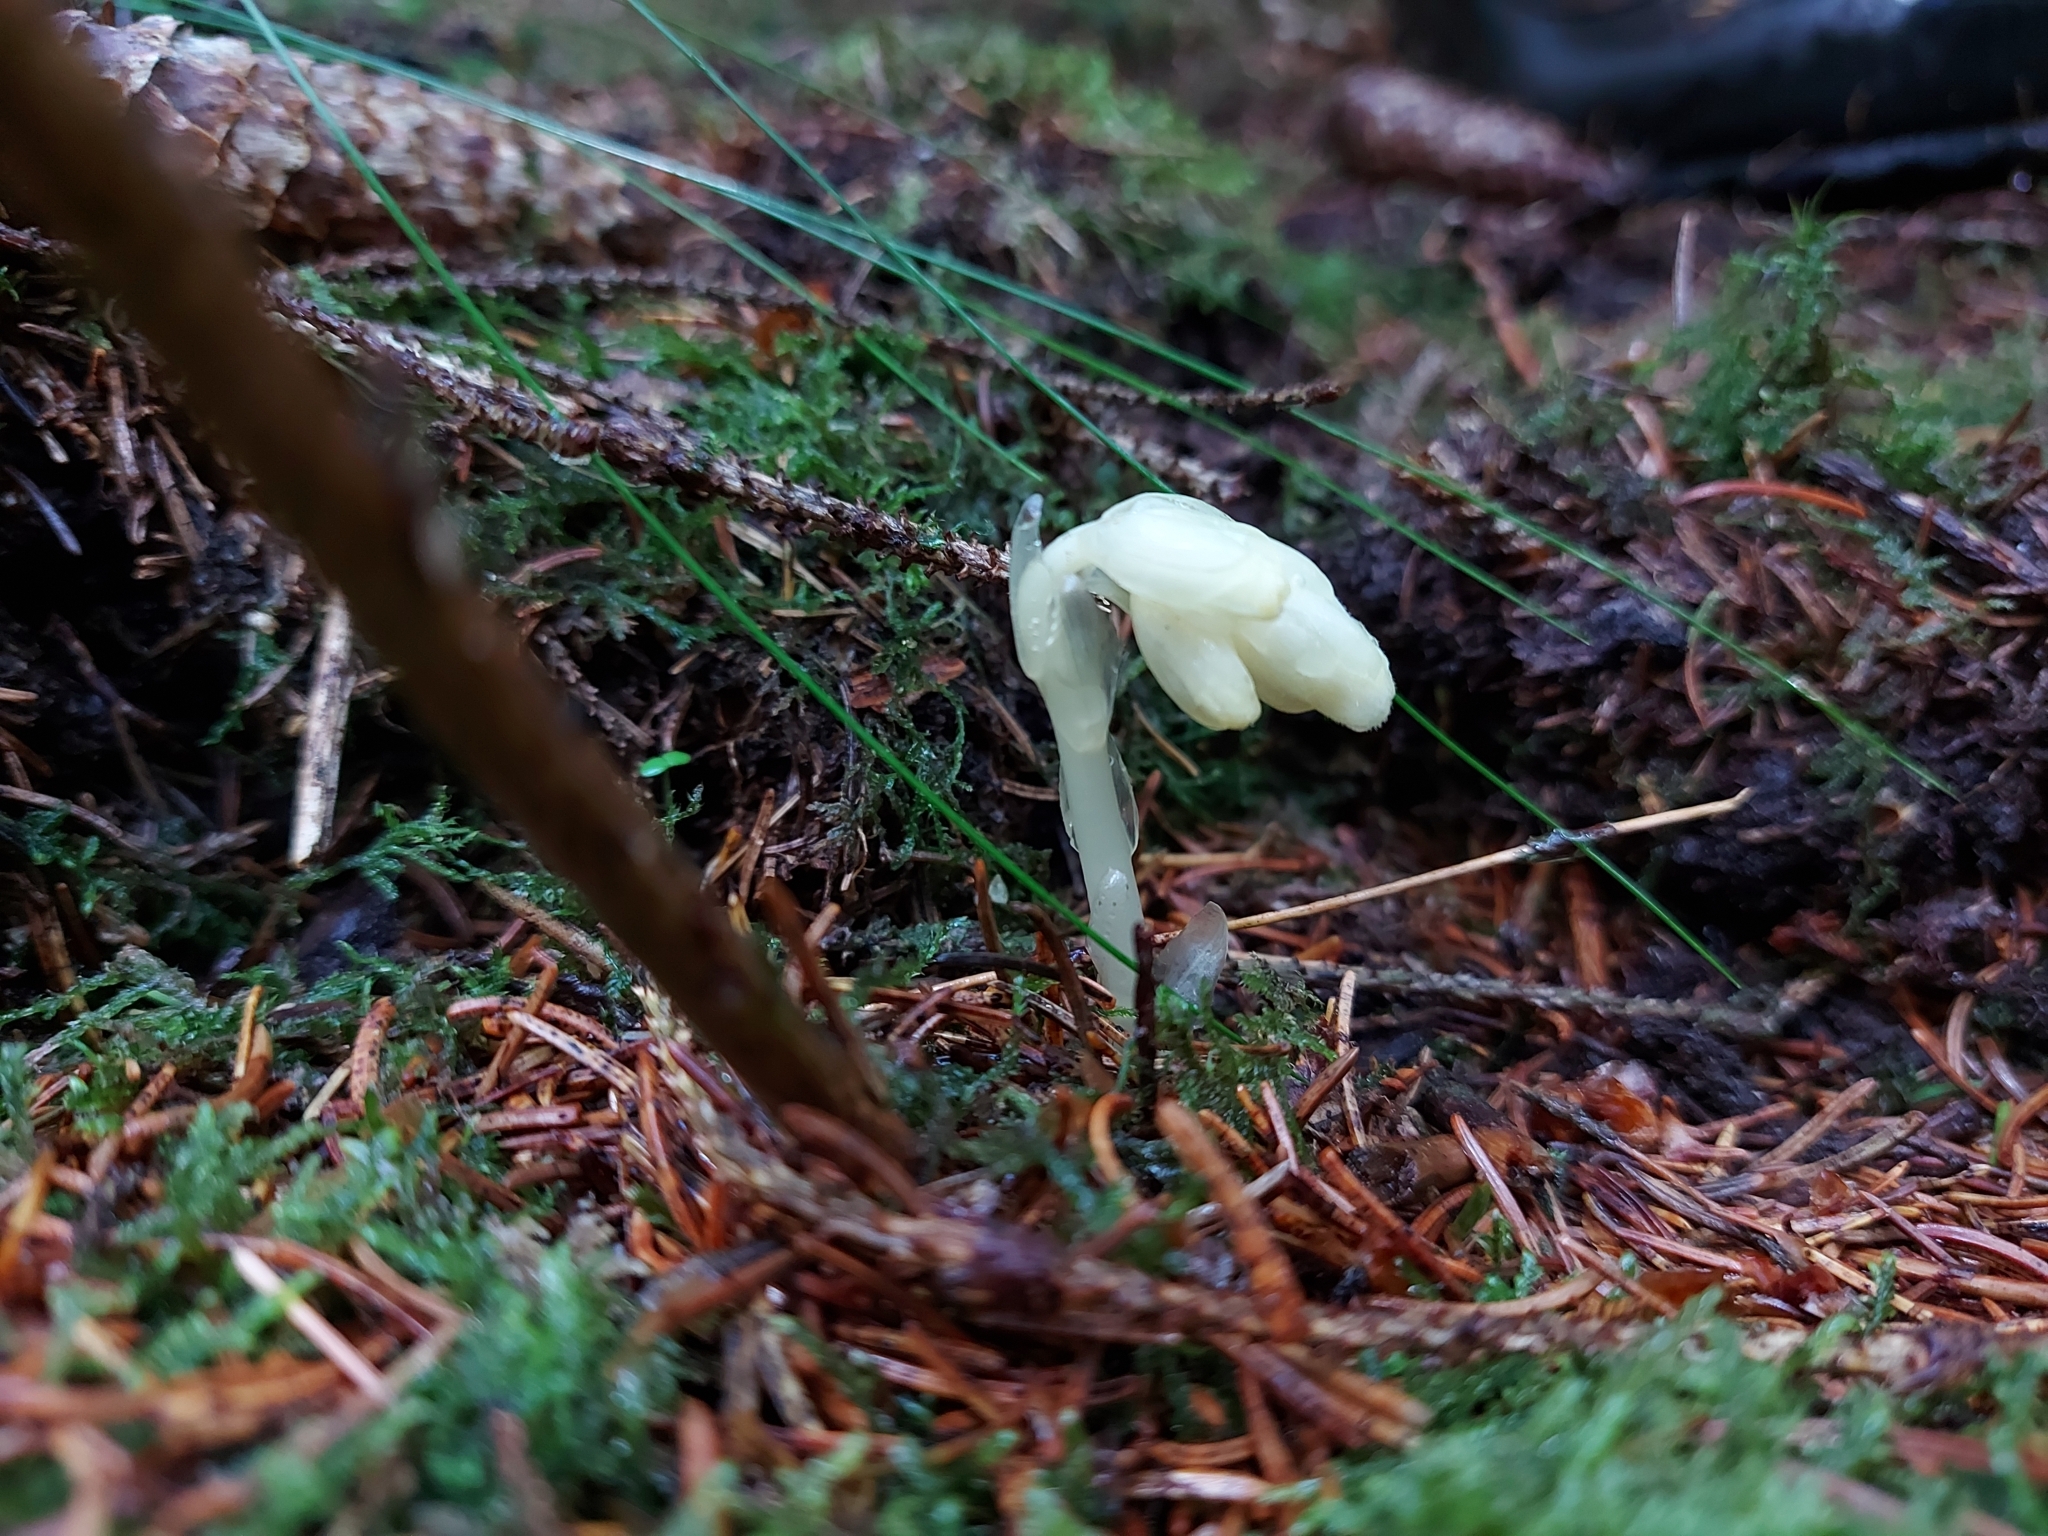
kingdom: Plantae
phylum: Tracheophyta
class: Magnoliopsida
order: Ericales
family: Ericaceae
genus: Hypopitys
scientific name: Hypopitys monotropa
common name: Yellow bird's-nest
